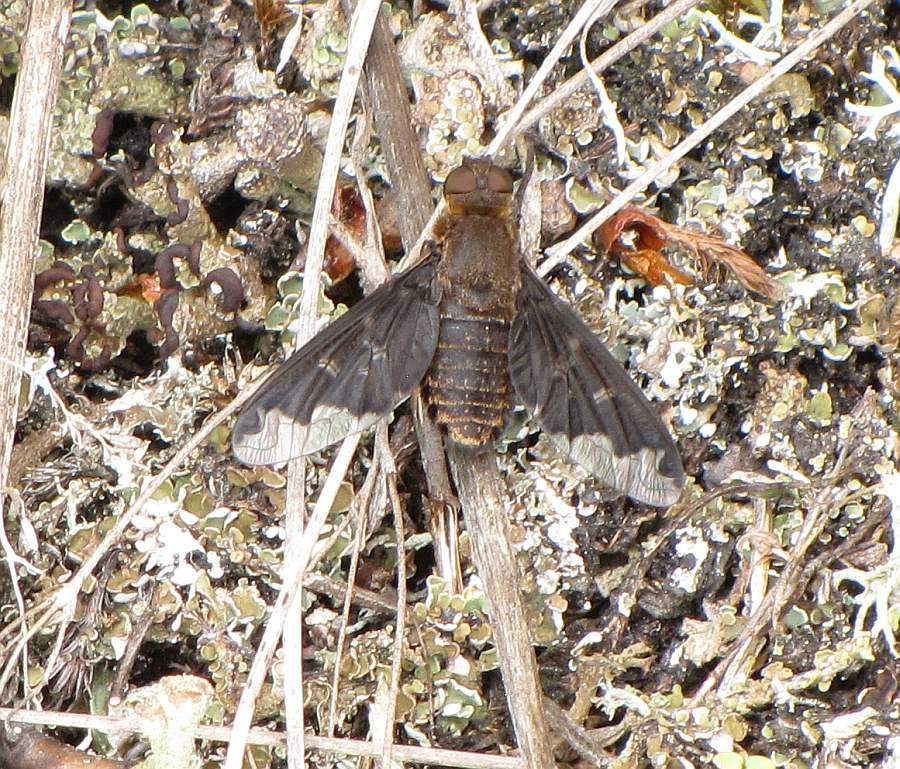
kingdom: Animalia
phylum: Arthropoda
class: Insecta
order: Diptera
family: Bombyliidae
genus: Hemipenthes
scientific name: Hemipenthes sinuosus
